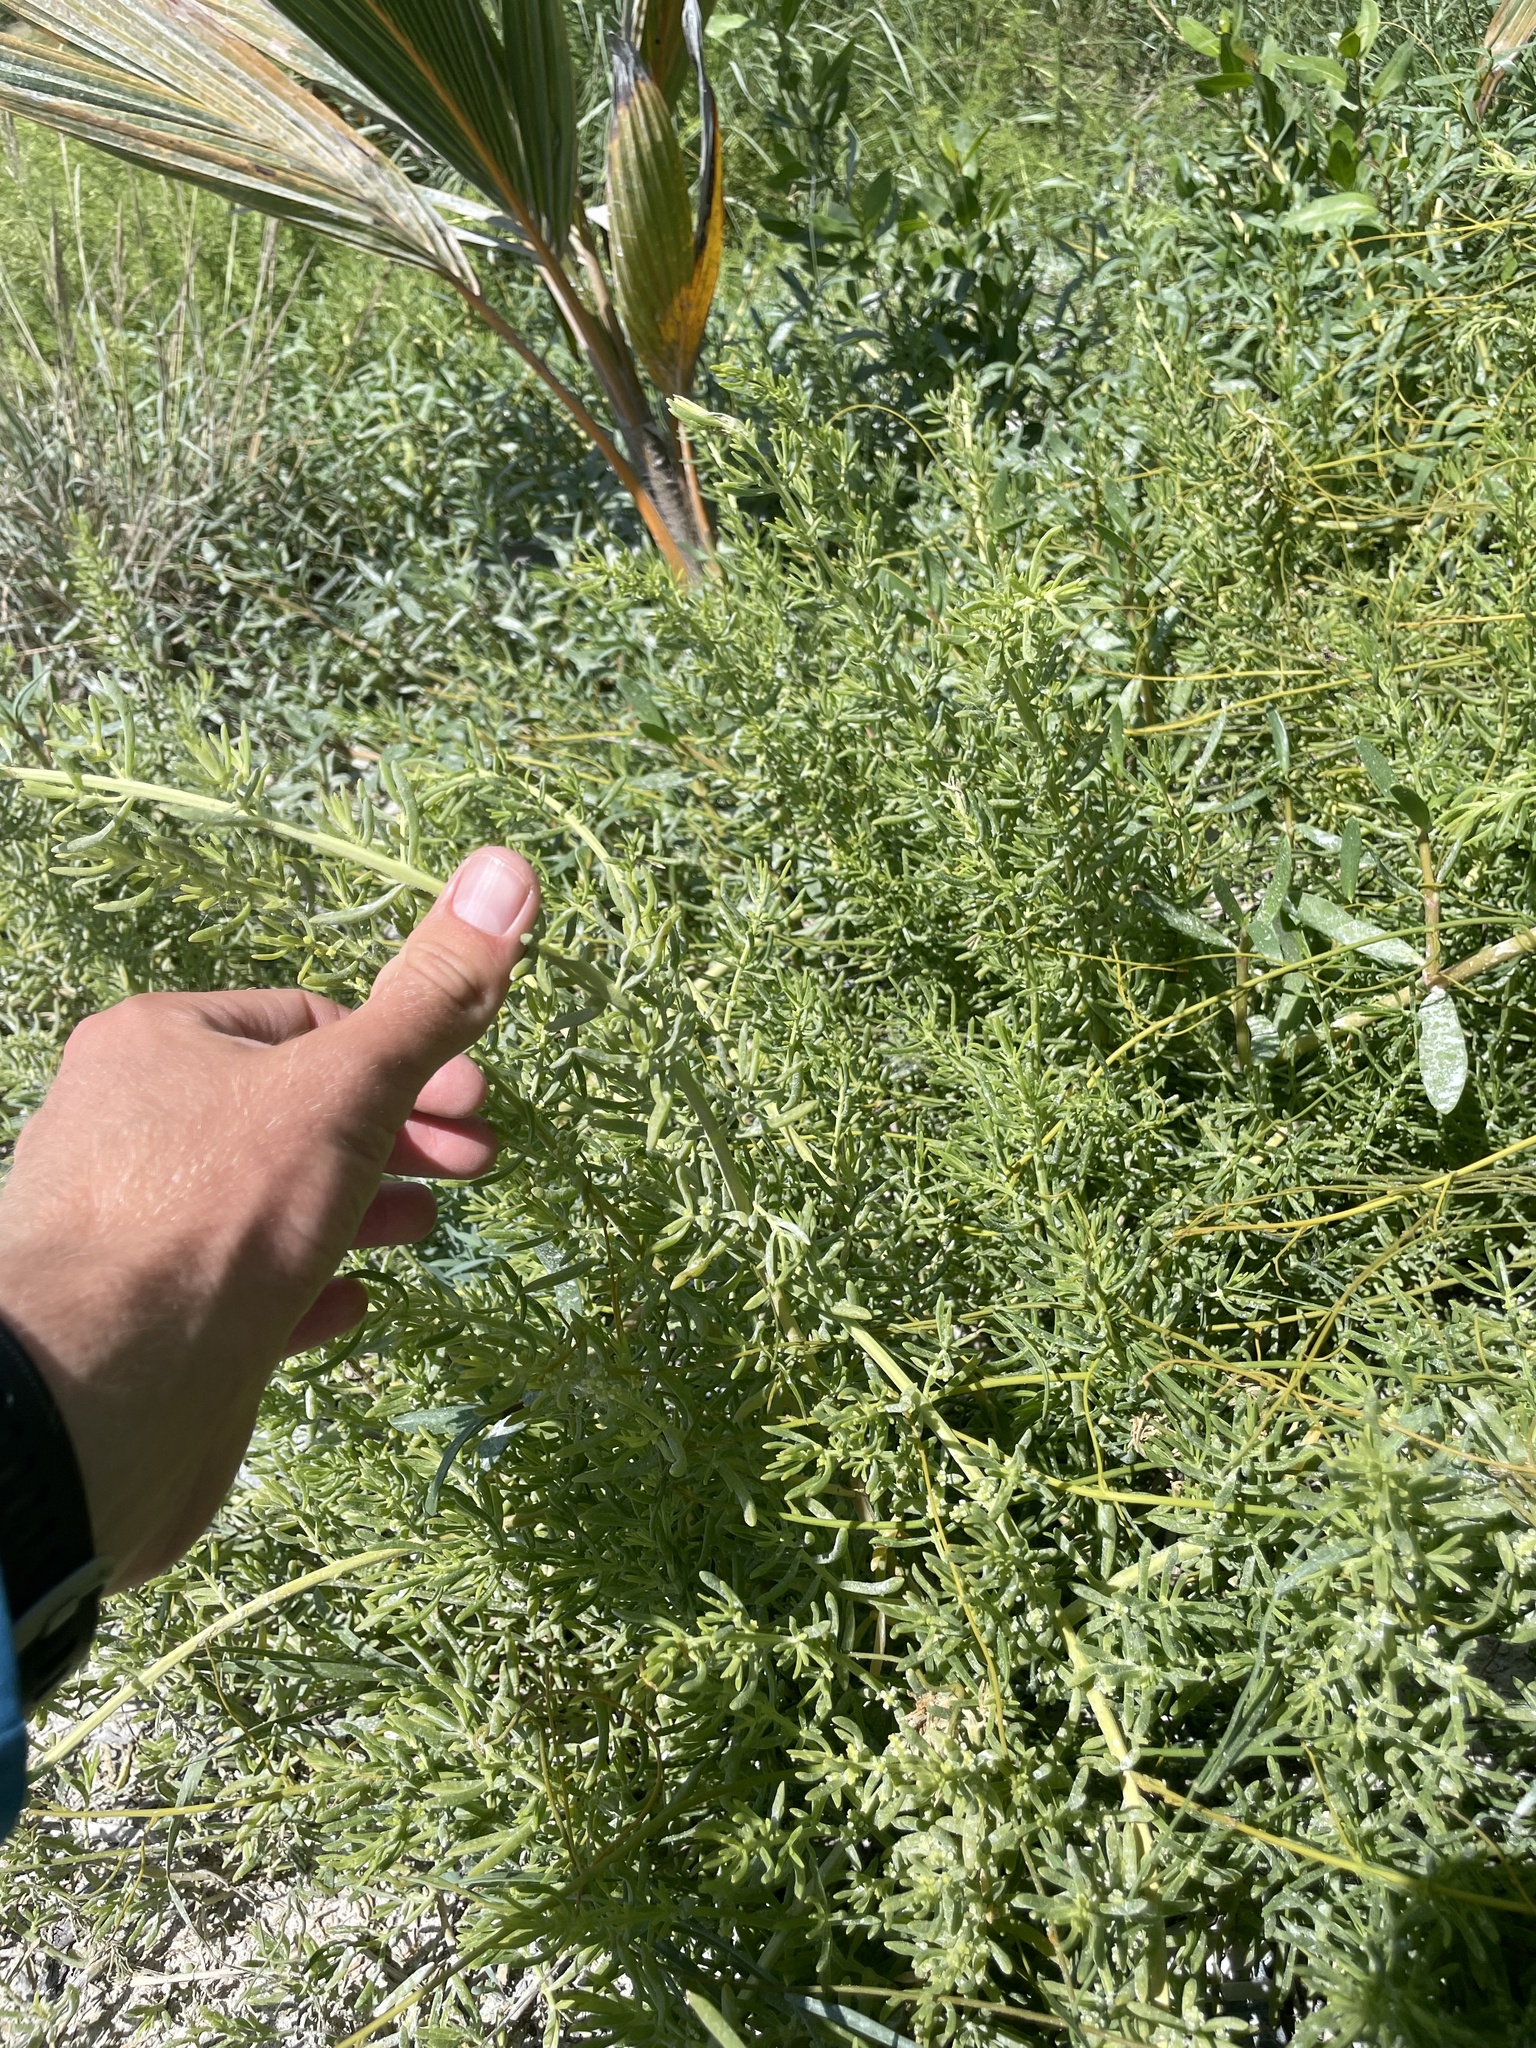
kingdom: Plantae
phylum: Tracheophyta
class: Magnoliopsida
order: Brassicales
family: Bataceae
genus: Batis
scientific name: Batis maritima
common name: Turtleweed
